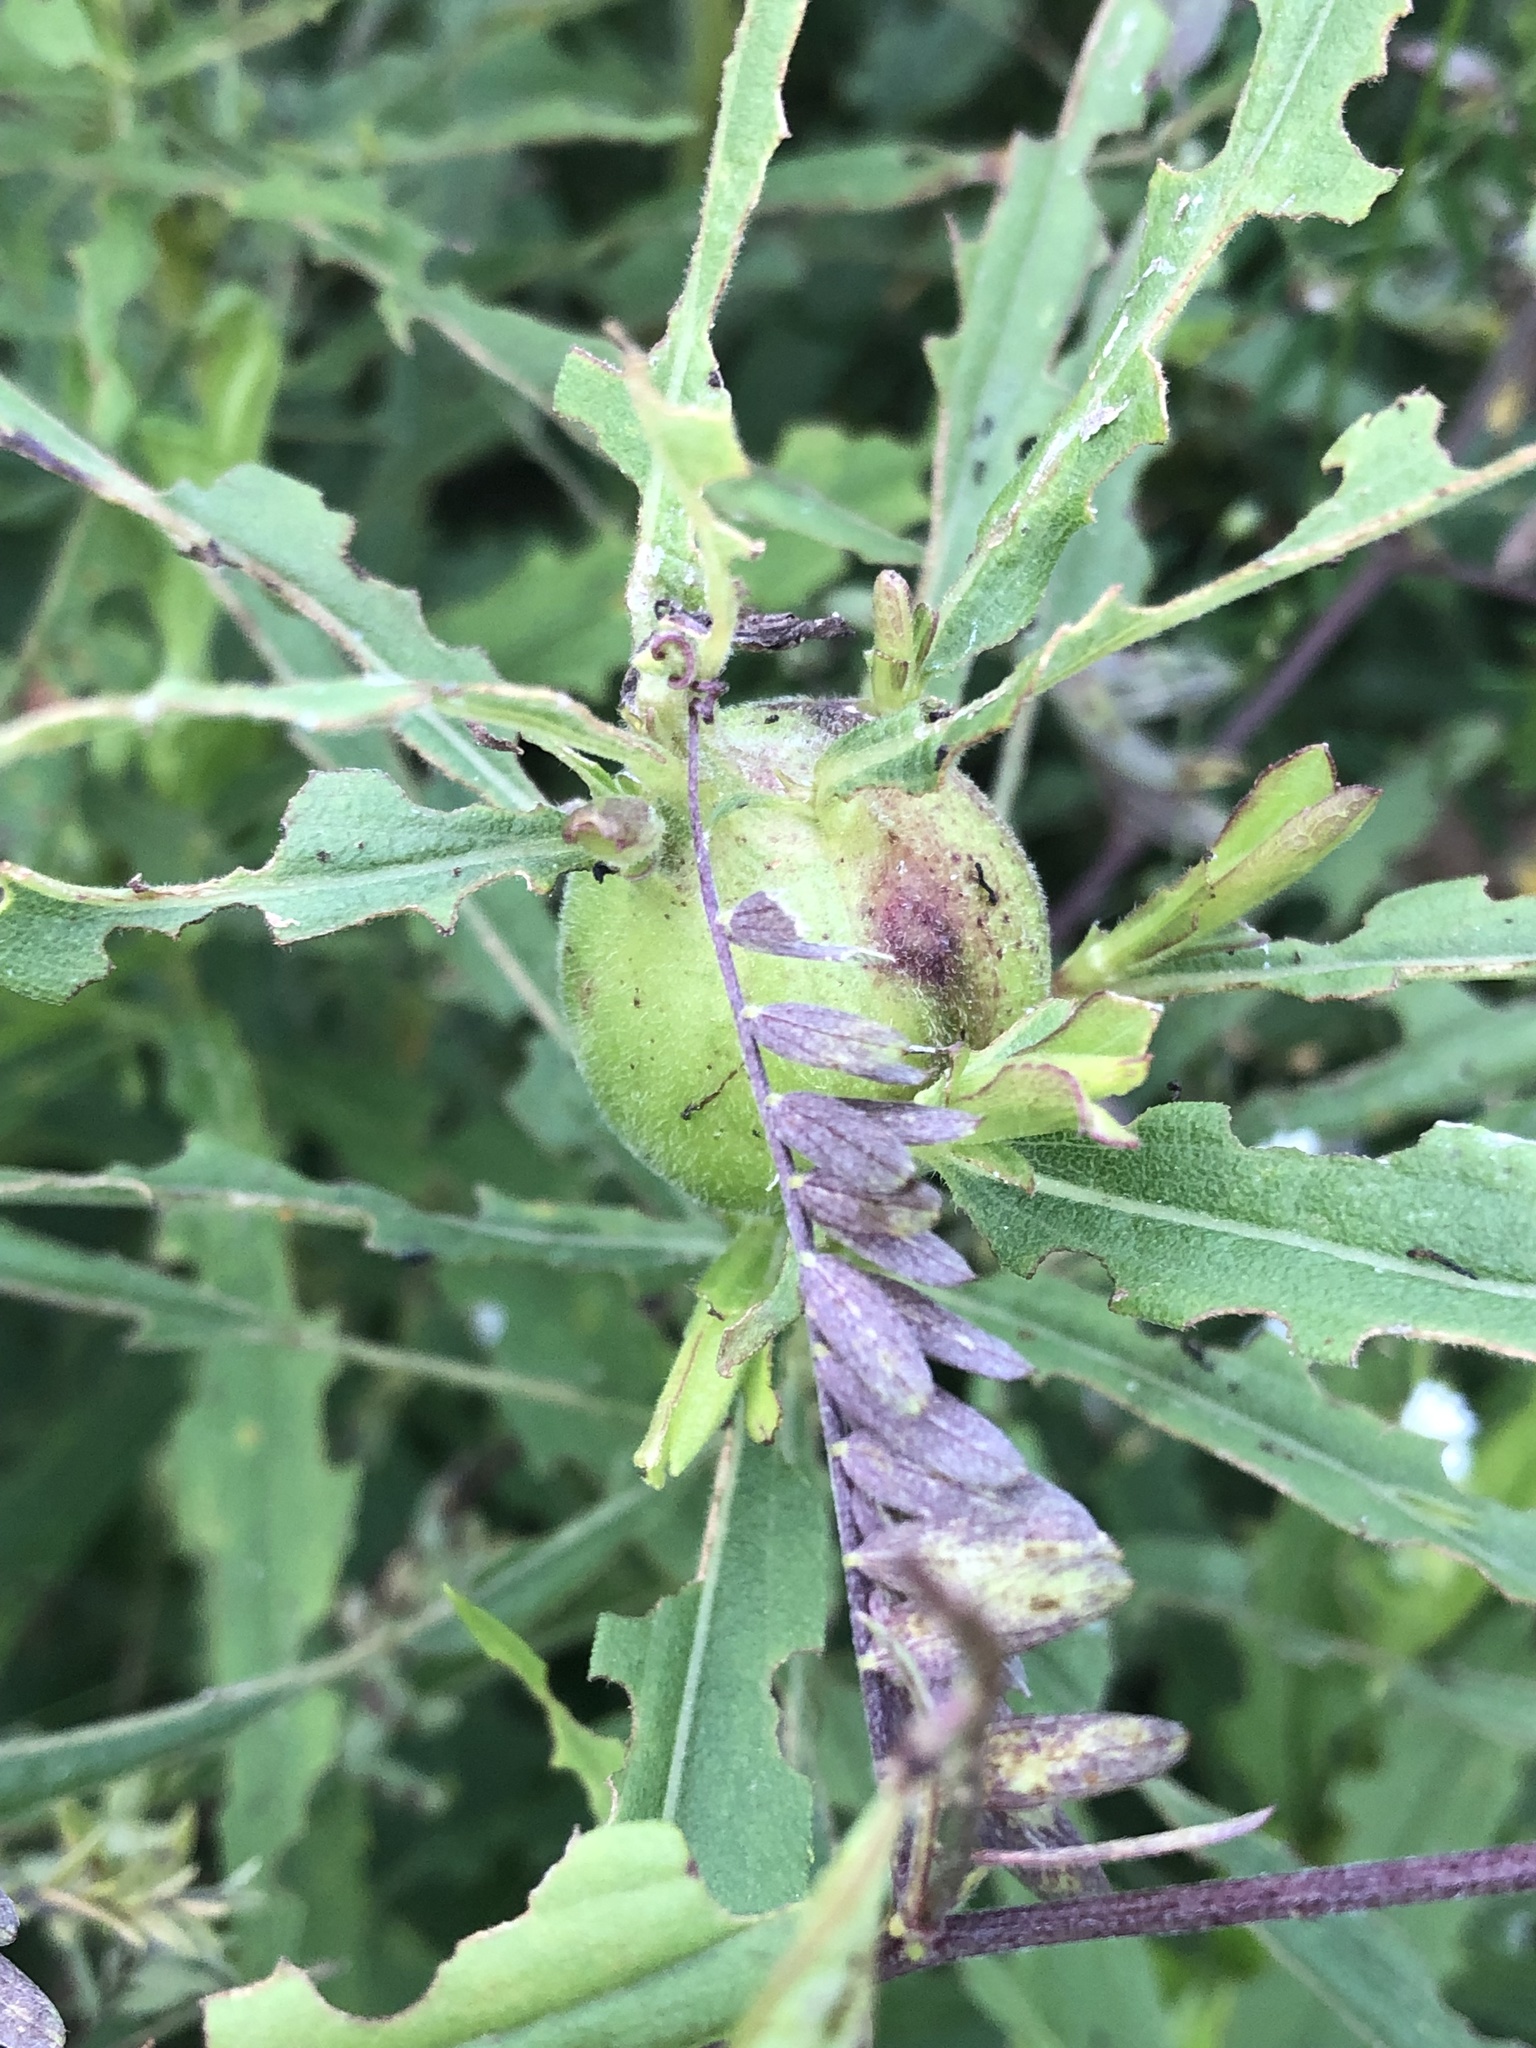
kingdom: Animalia
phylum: Arthropoda
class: Insecta
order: Diptera
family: Tephritidae
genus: Eurosta
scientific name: Eurosta solidaginis
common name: Goldenrod gall fly
